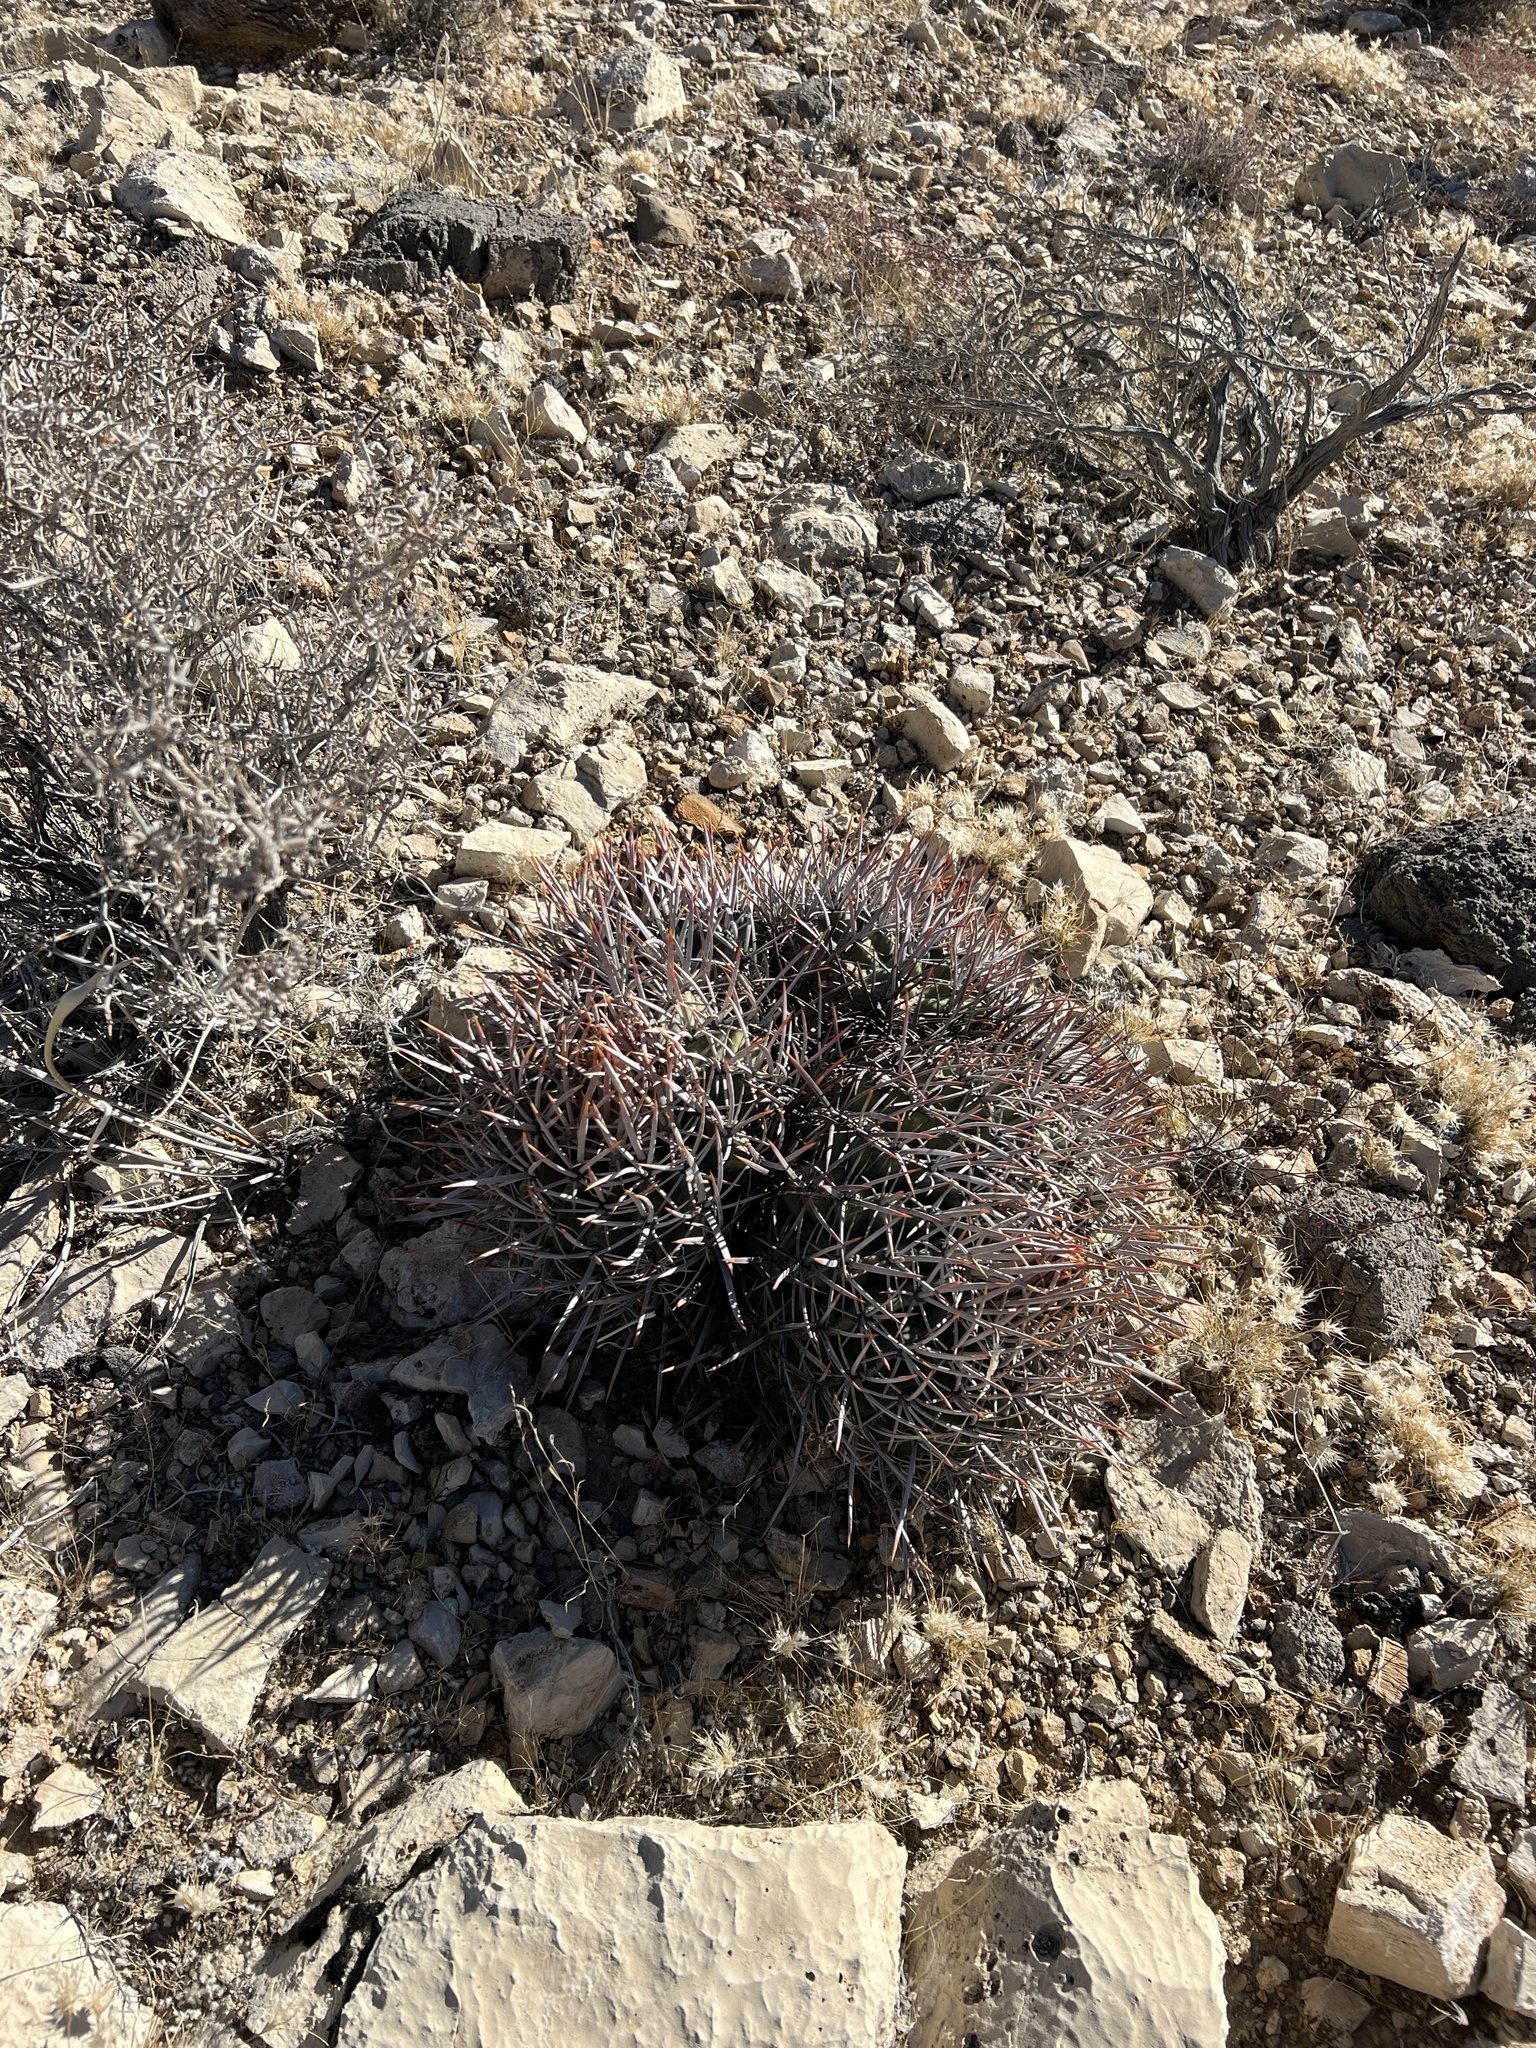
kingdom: Plantae
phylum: Tracheophyta
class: Magnoliopsida
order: Caryophyllales
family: Cactaceae
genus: Echinocactus
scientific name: Echinocactus polycephalus
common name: Cottontop cactus
